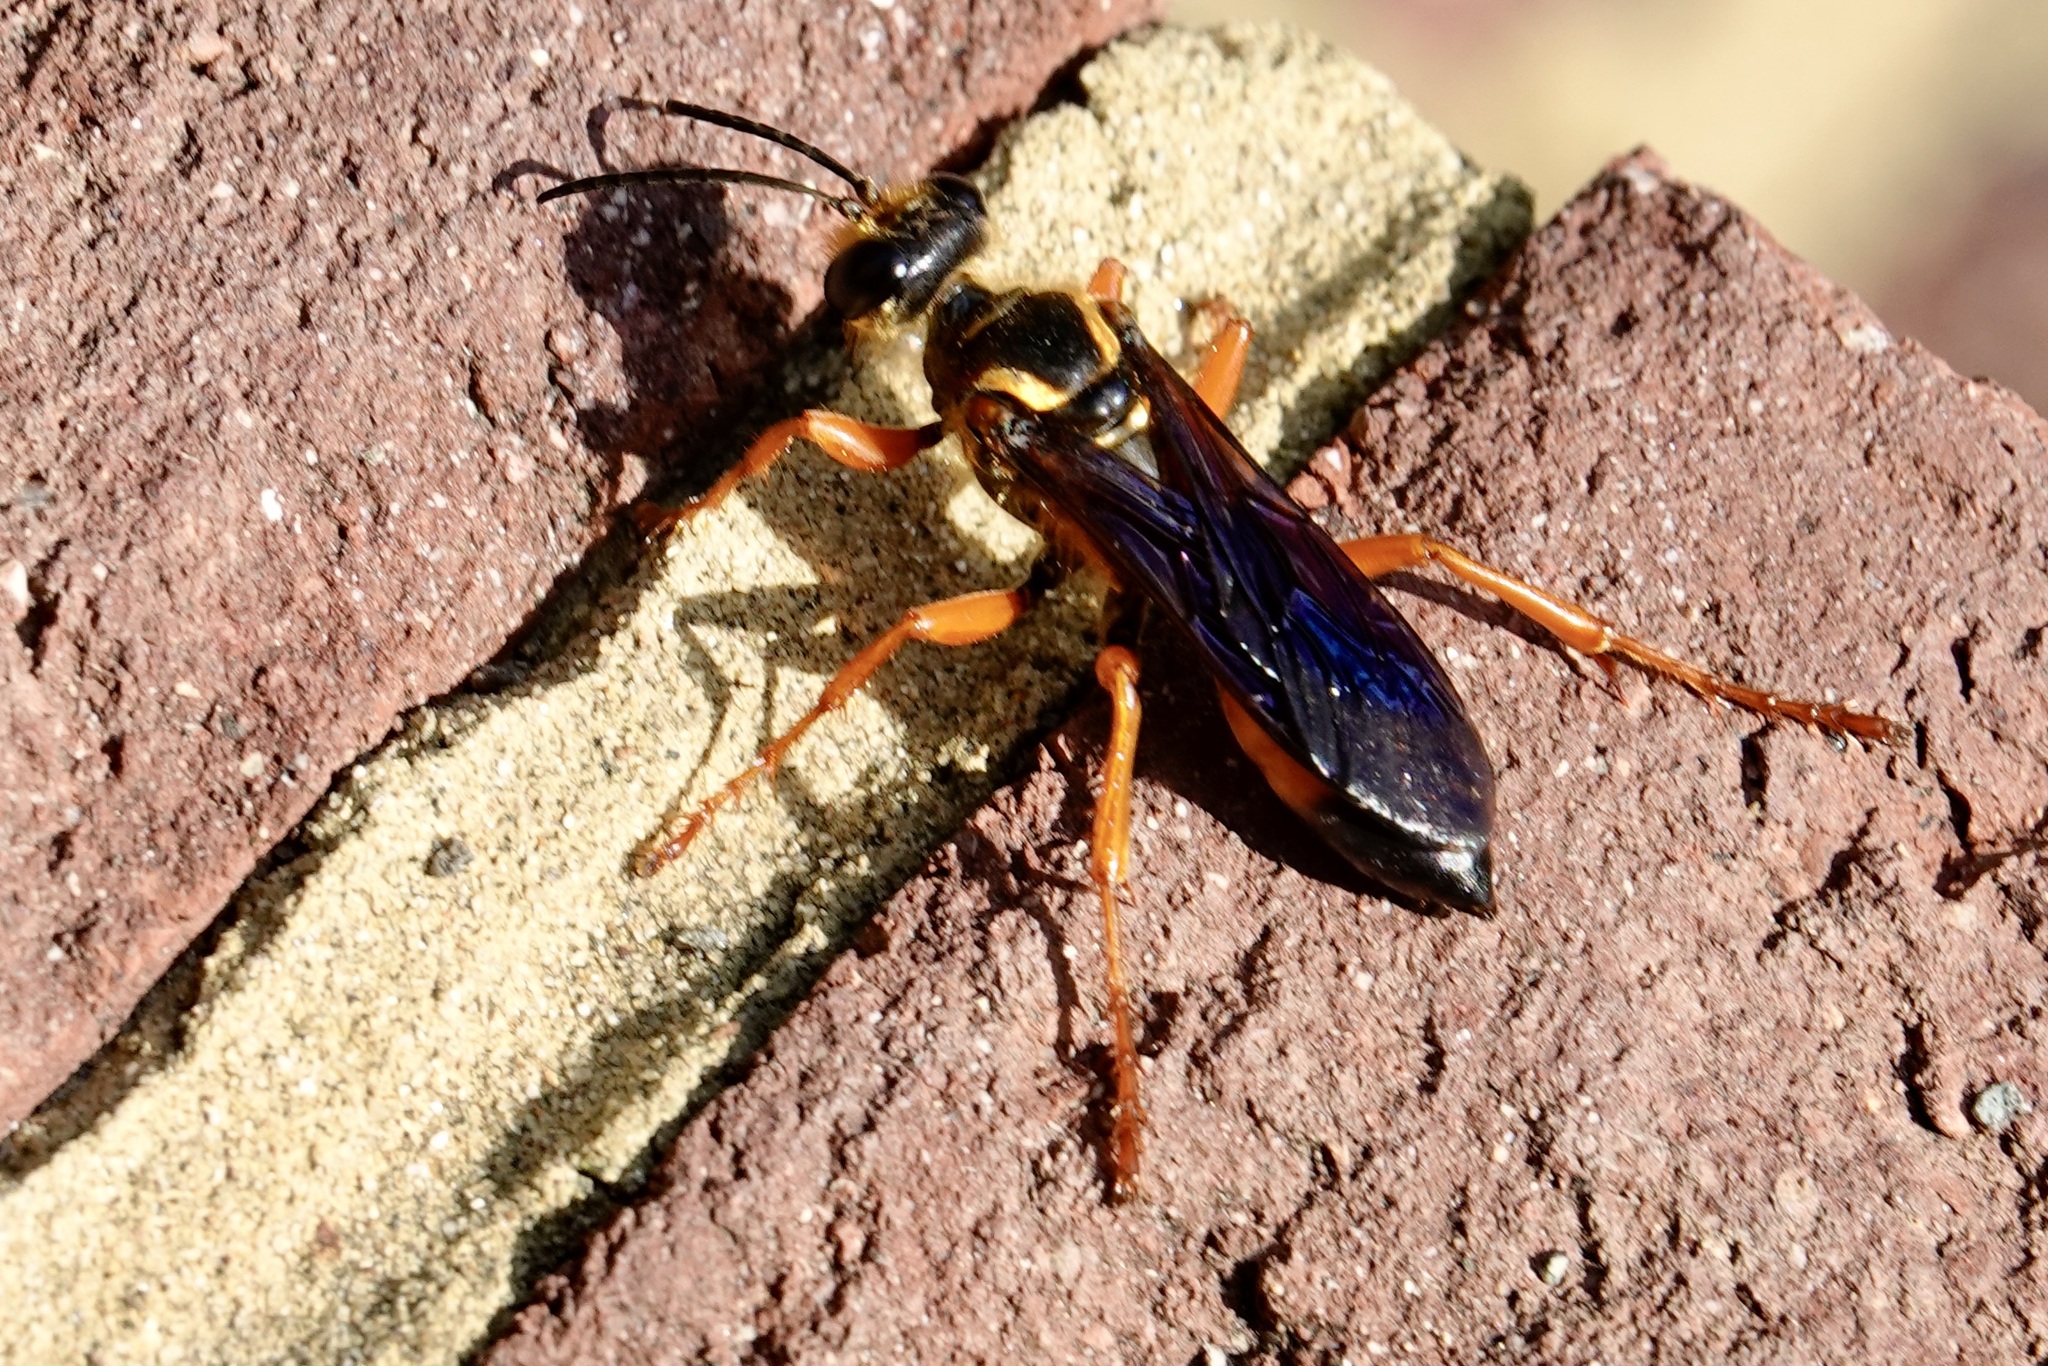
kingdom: Animalia
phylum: Arthropoda
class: Insecta
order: Hymenoptera
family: Sphecidae
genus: Sphex
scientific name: Sphex ichneumoneus
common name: Great golden digger wasp
